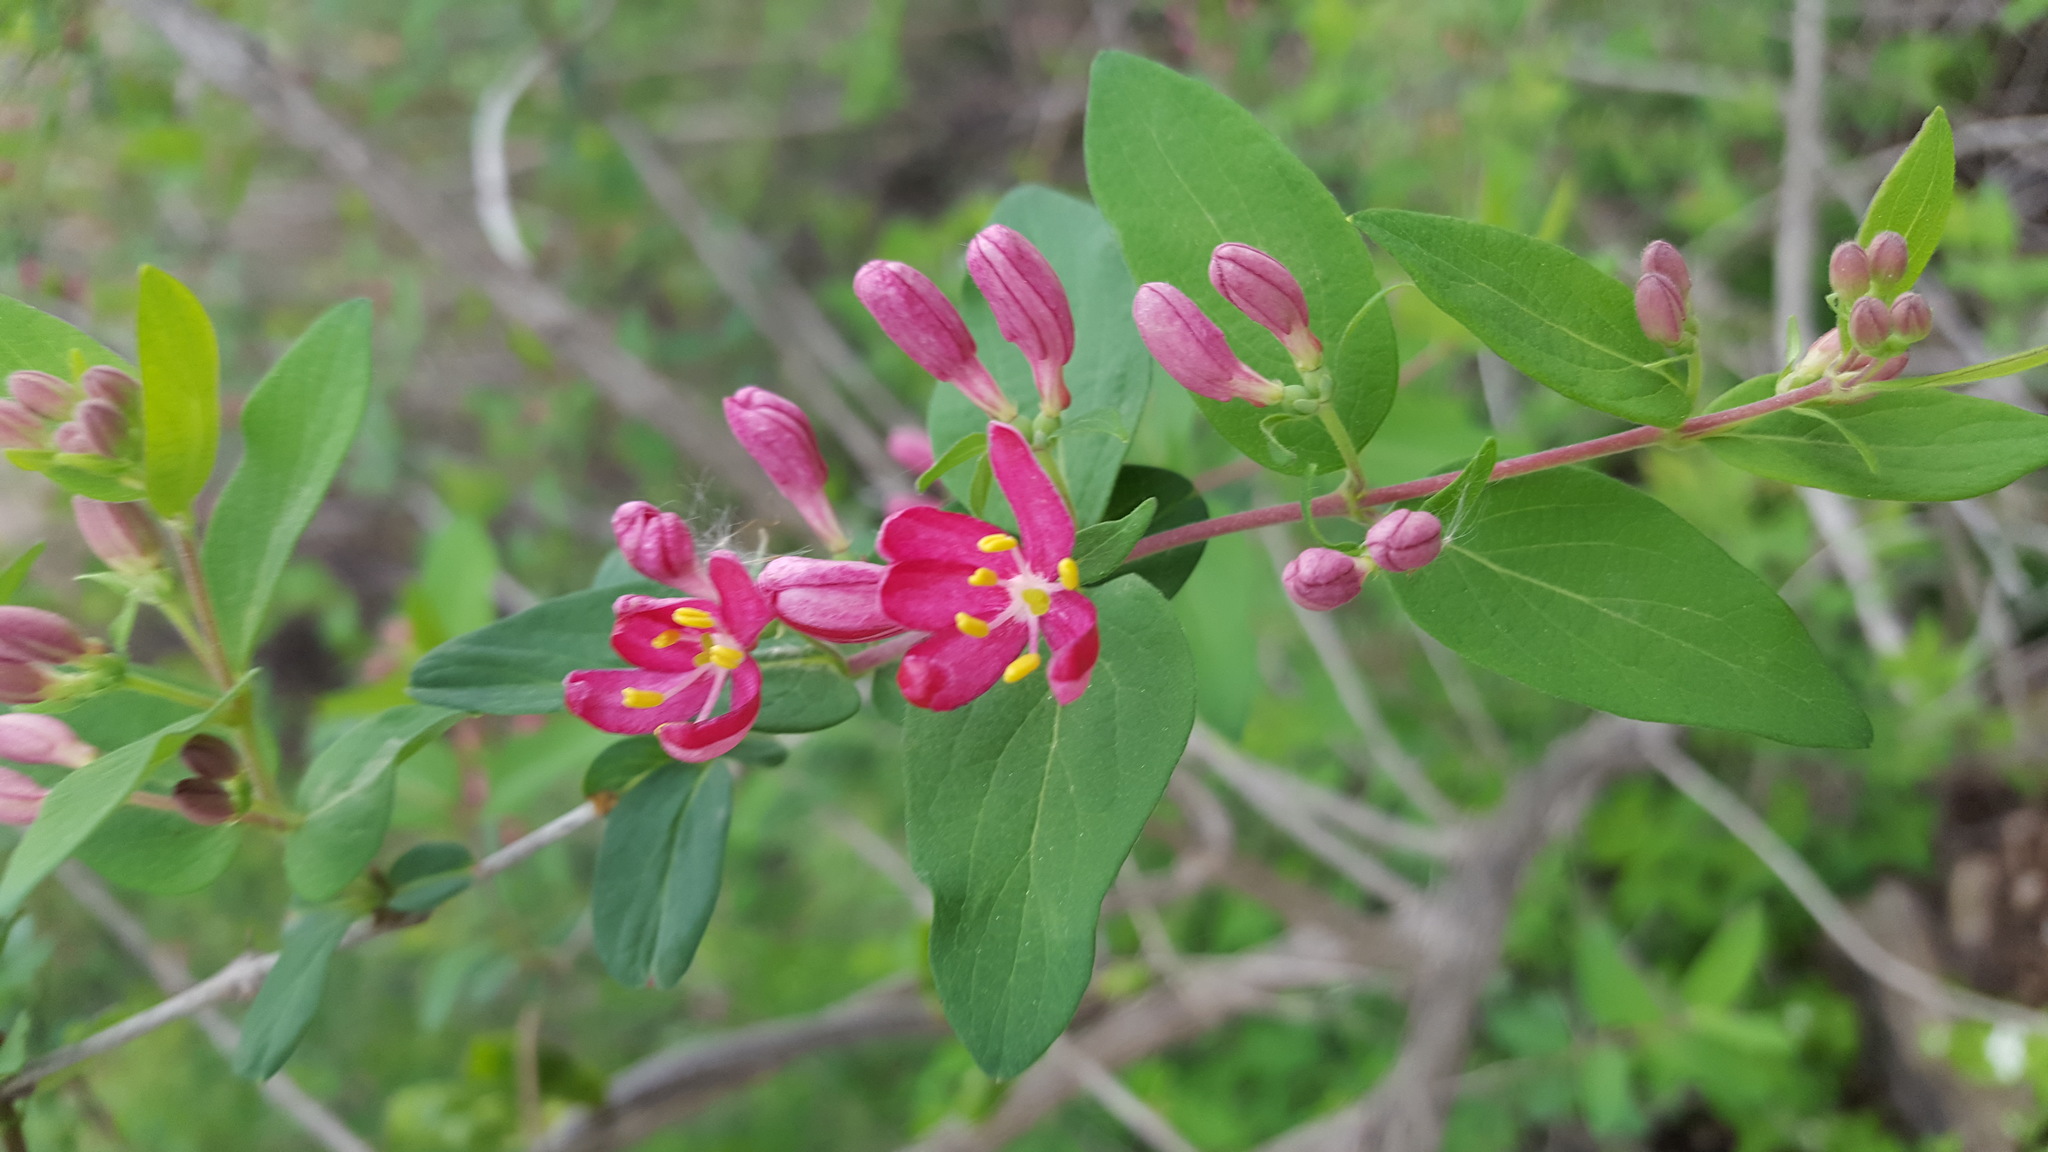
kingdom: Plantae
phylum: Tracheophyta
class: Magnoliopsida
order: Dipsacales
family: Caprifoliaceae
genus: Lonicera
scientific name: Lonicera tatarica
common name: Tatarian honeysuckle
